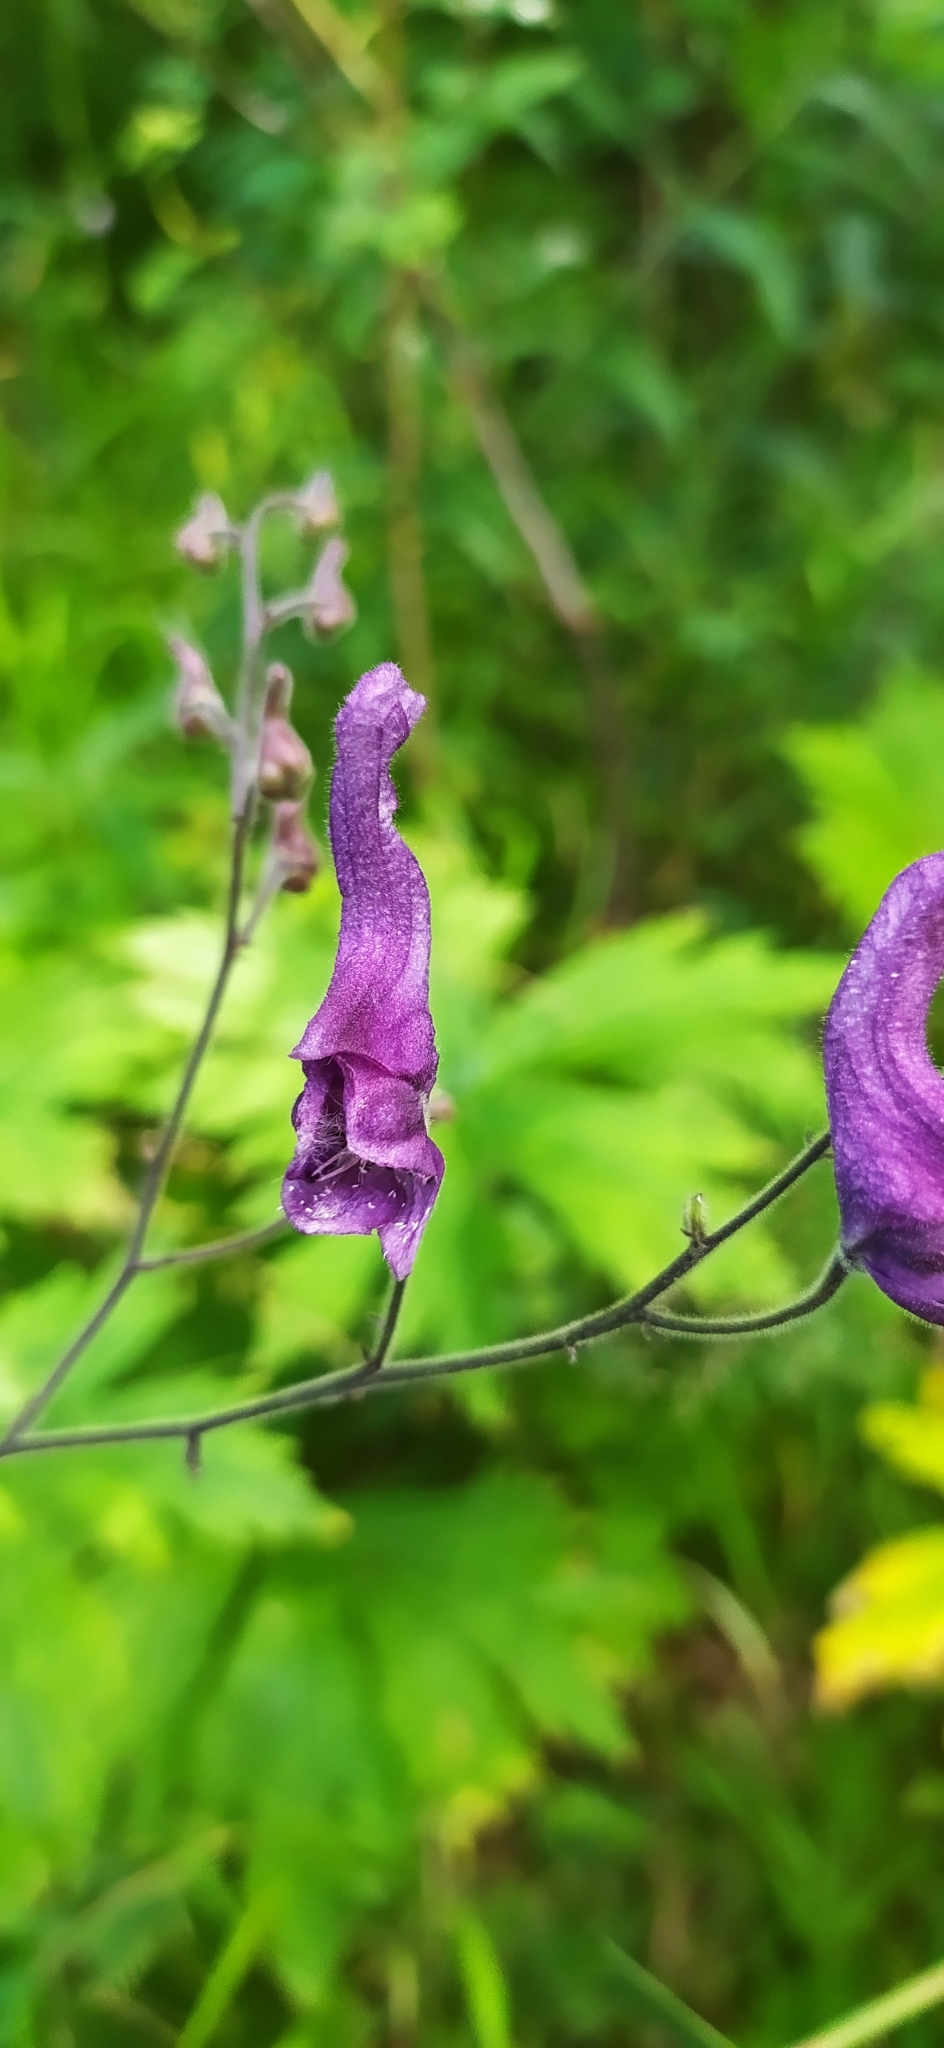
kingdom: Plantae
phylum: Tracheophyta
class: Magnoliopsida
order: Ranunculales
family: Ranunculaceae
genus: Aconitum
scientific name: Aconitum septentrionale
